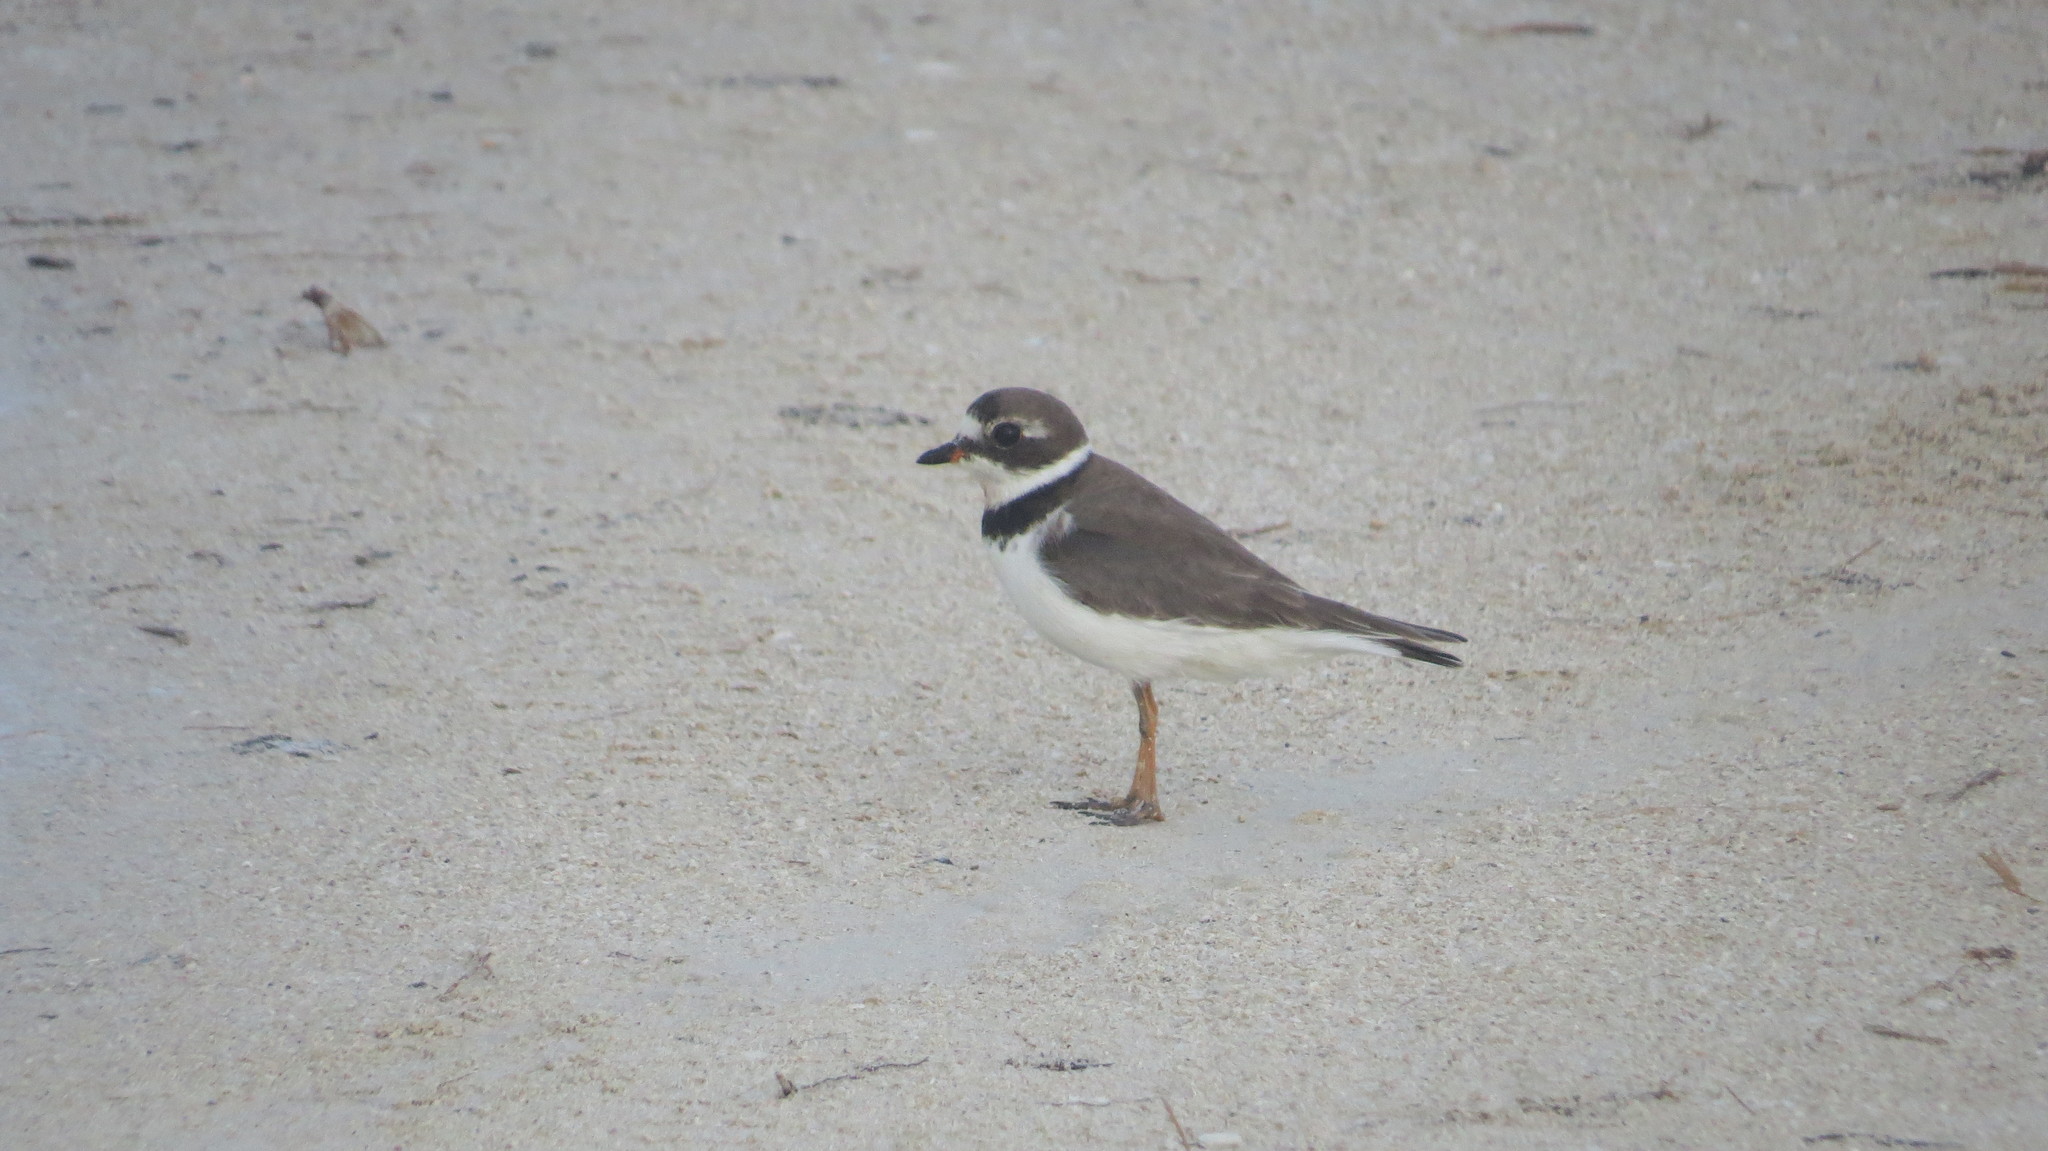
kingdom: Animalia
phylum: Chordata
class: Aves
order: Charadriiformes
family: Charadriidae
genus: Charadrius
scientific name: Charadrius semipalmatus
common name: Semipalmated plover
